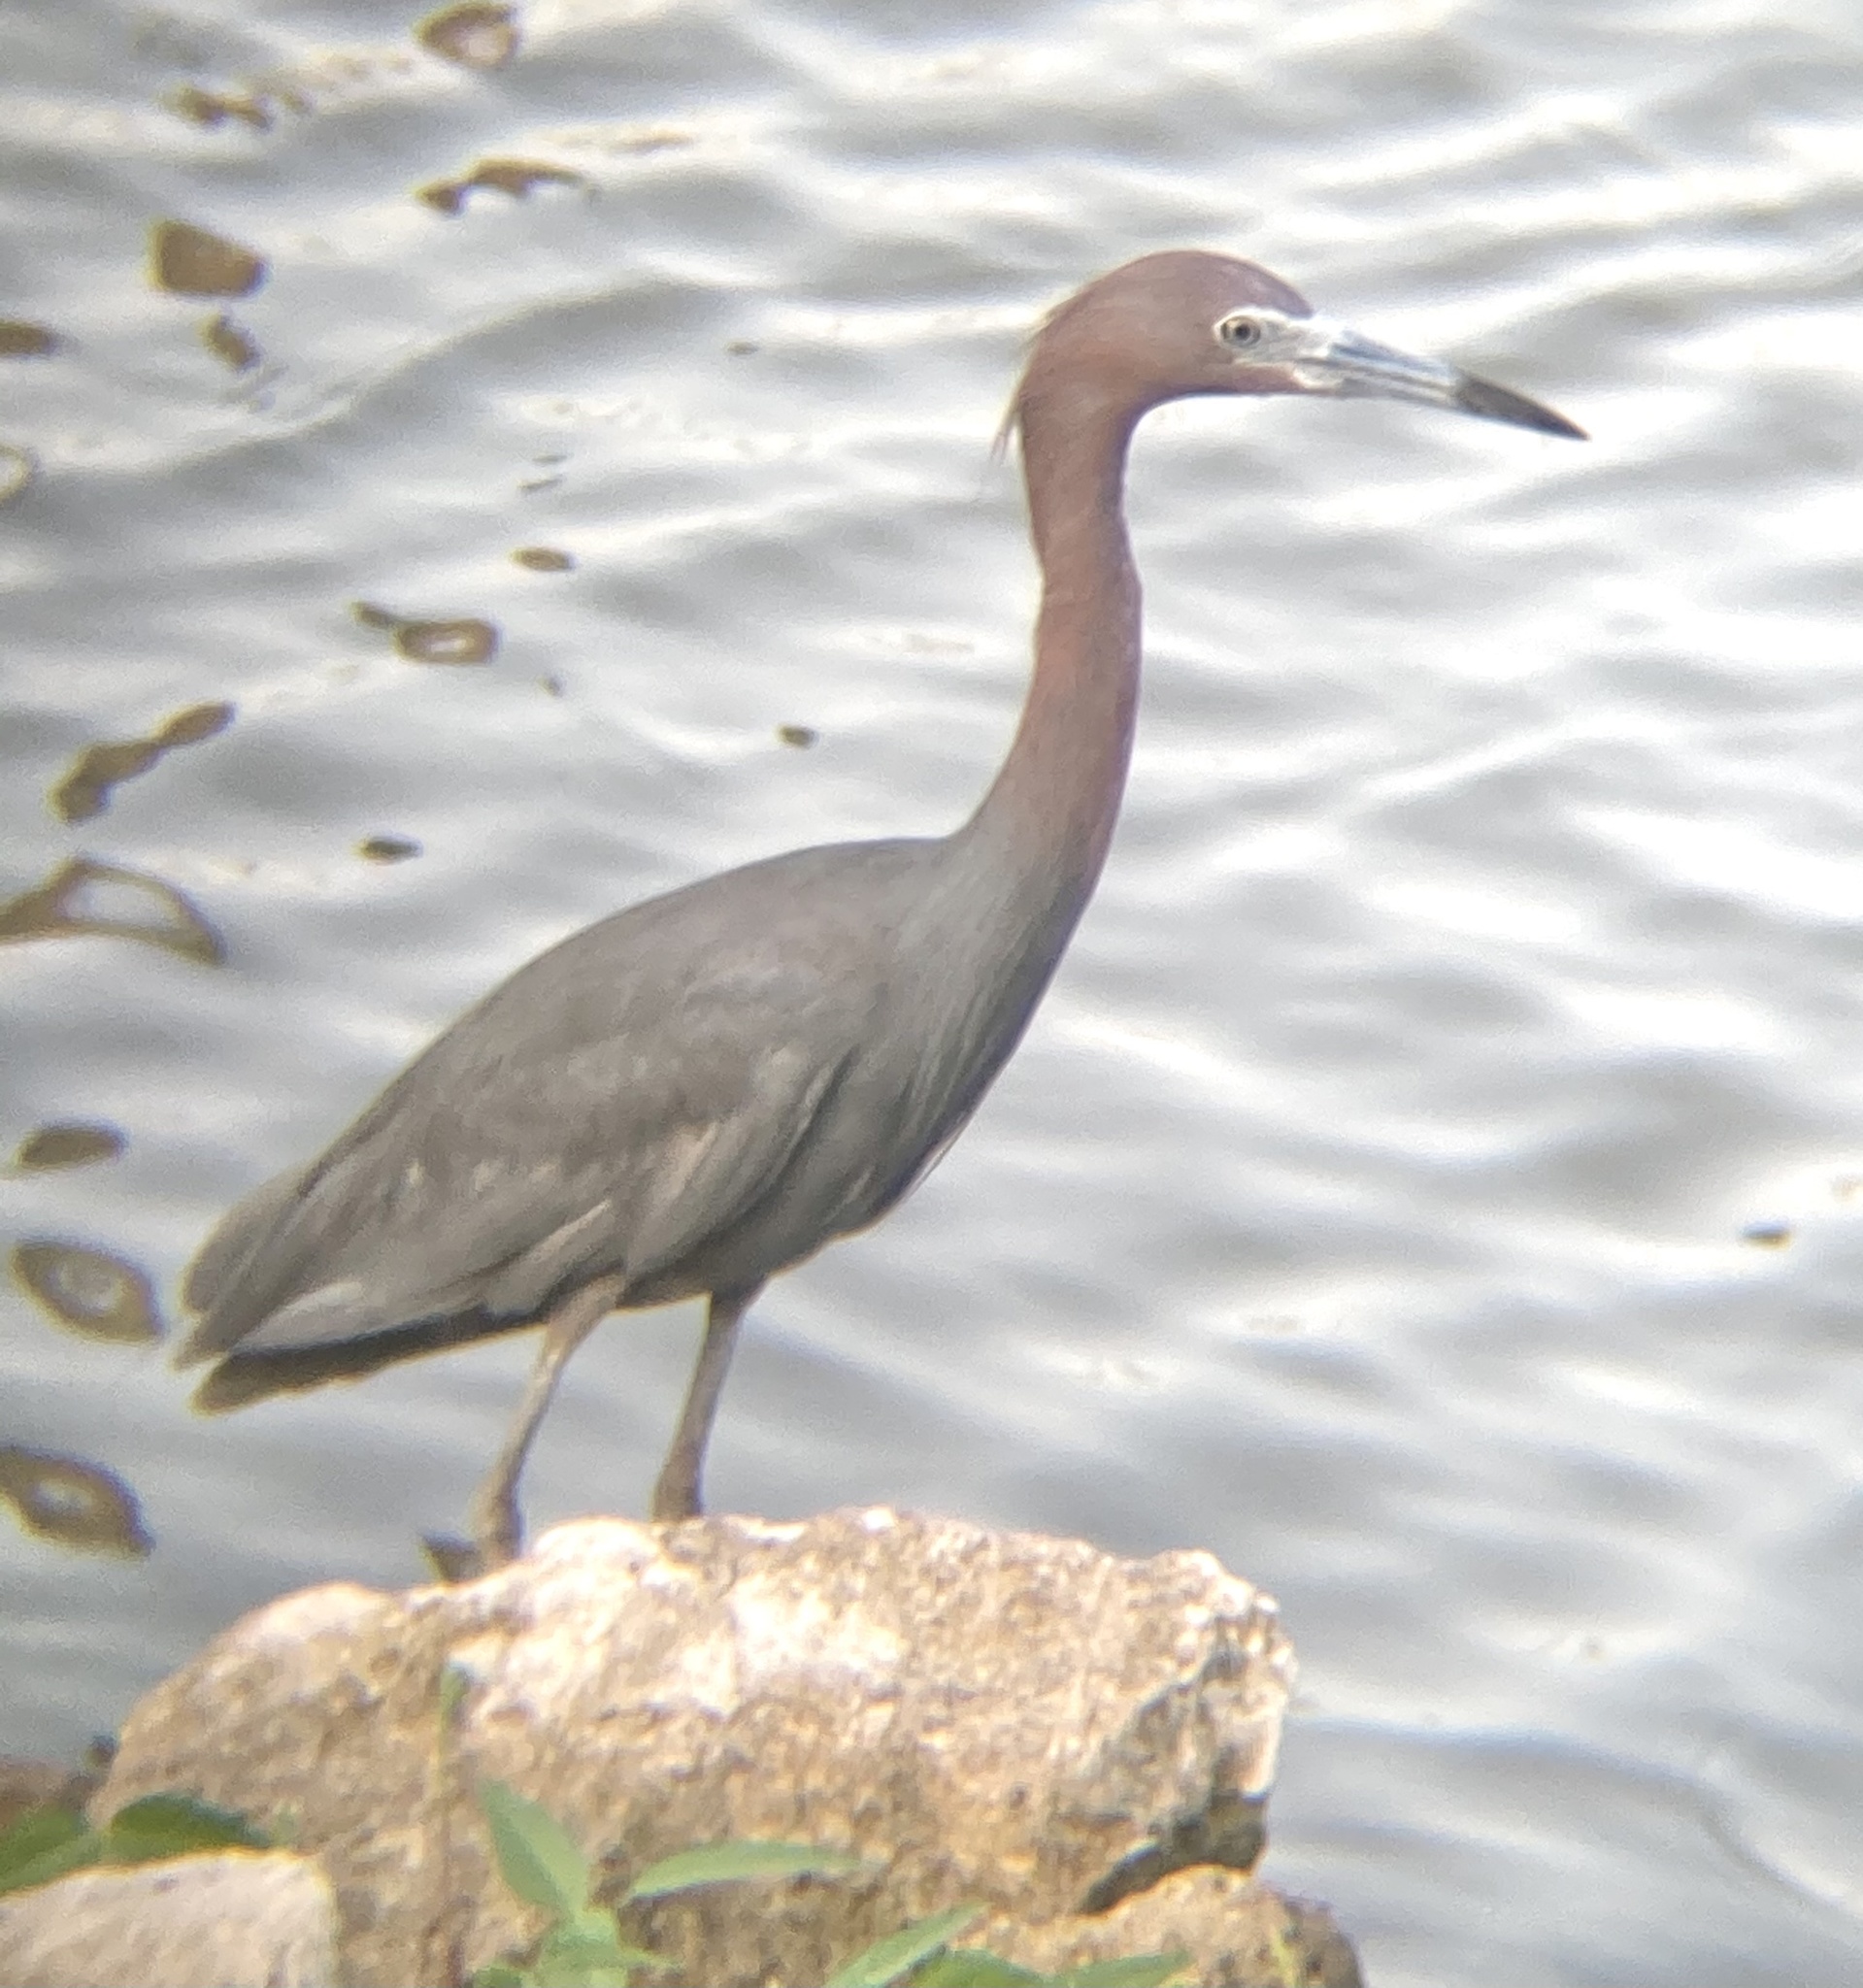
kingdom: Animalia
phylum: Chordata
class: Aves
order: Pelecaniformes
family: Ardeidae
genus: Egretta
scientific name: Egretta caerulea
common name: Little blue heron
